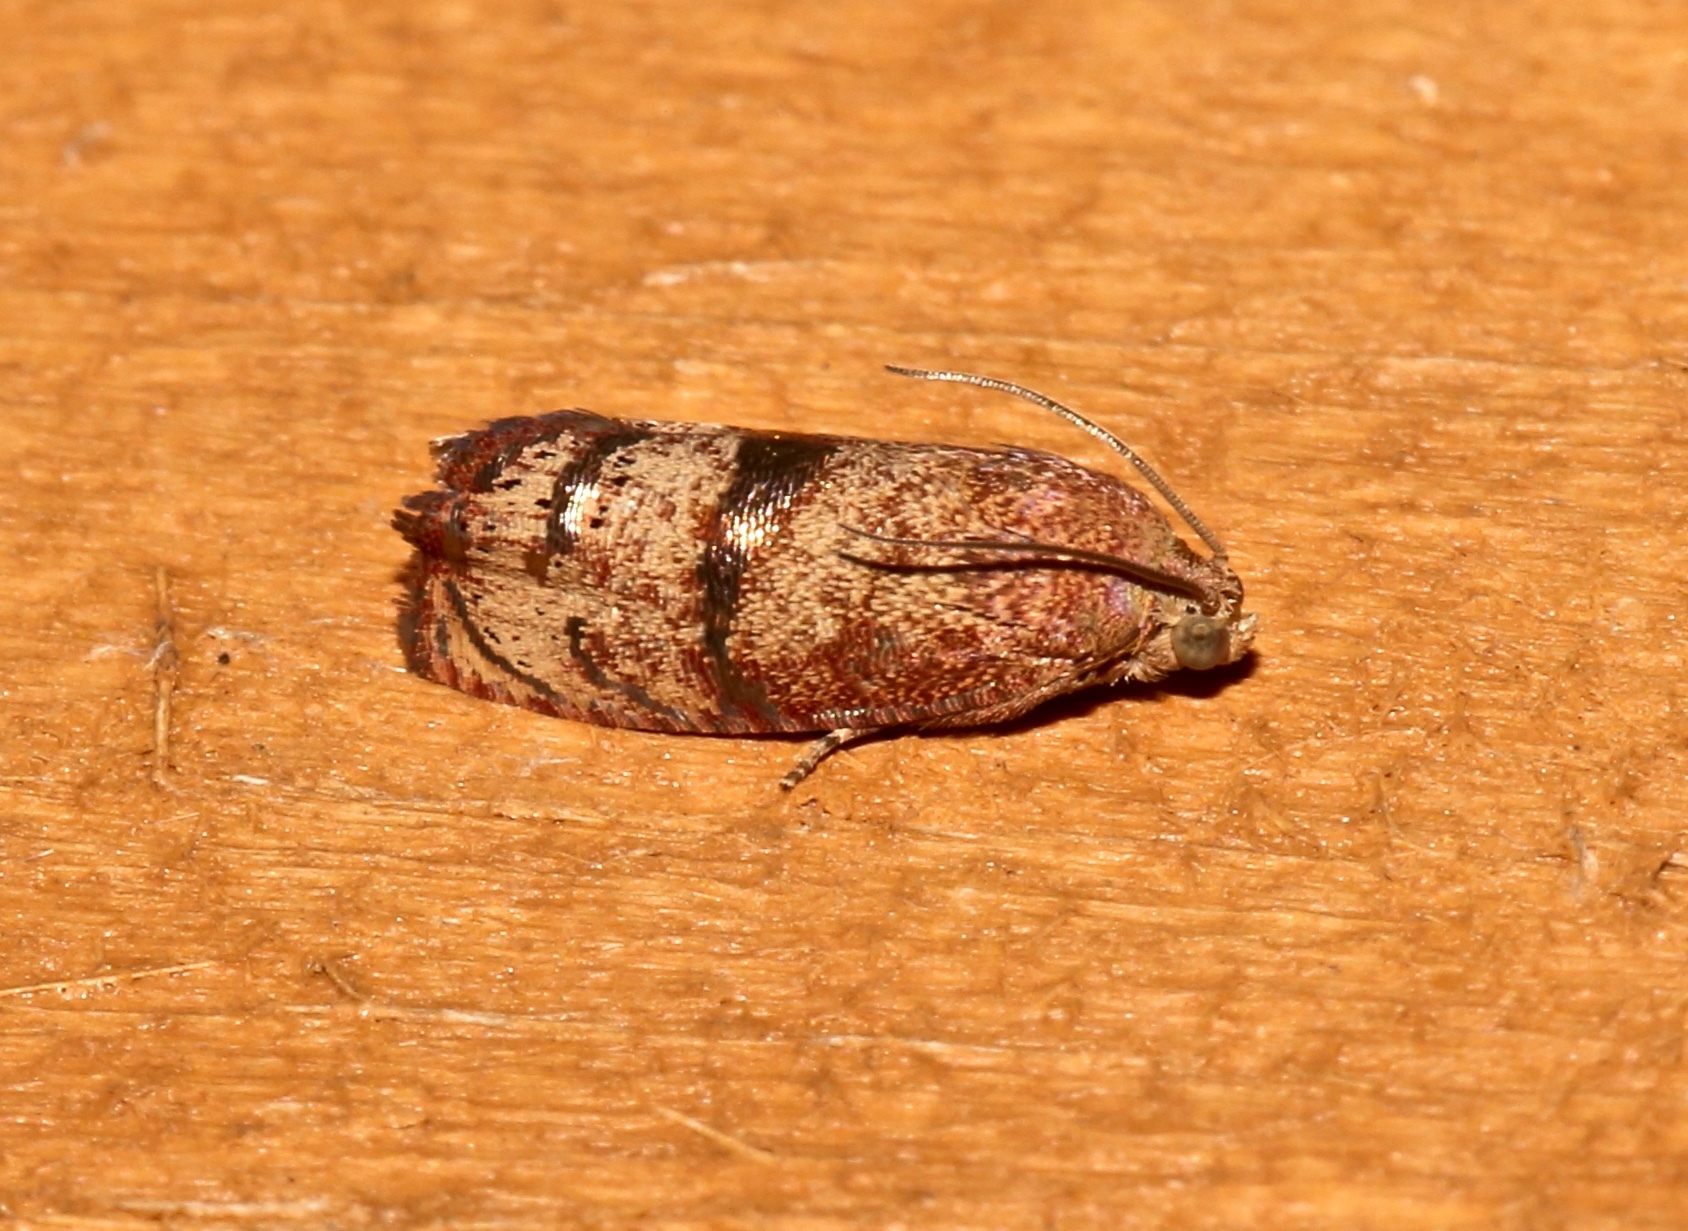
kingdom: Animalia
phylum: Arthropoda
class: Insecta
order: Lepidoptera
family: Tortricidae
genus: Cydia
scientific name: Cydia latiferreana
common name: Filbertworm moth
